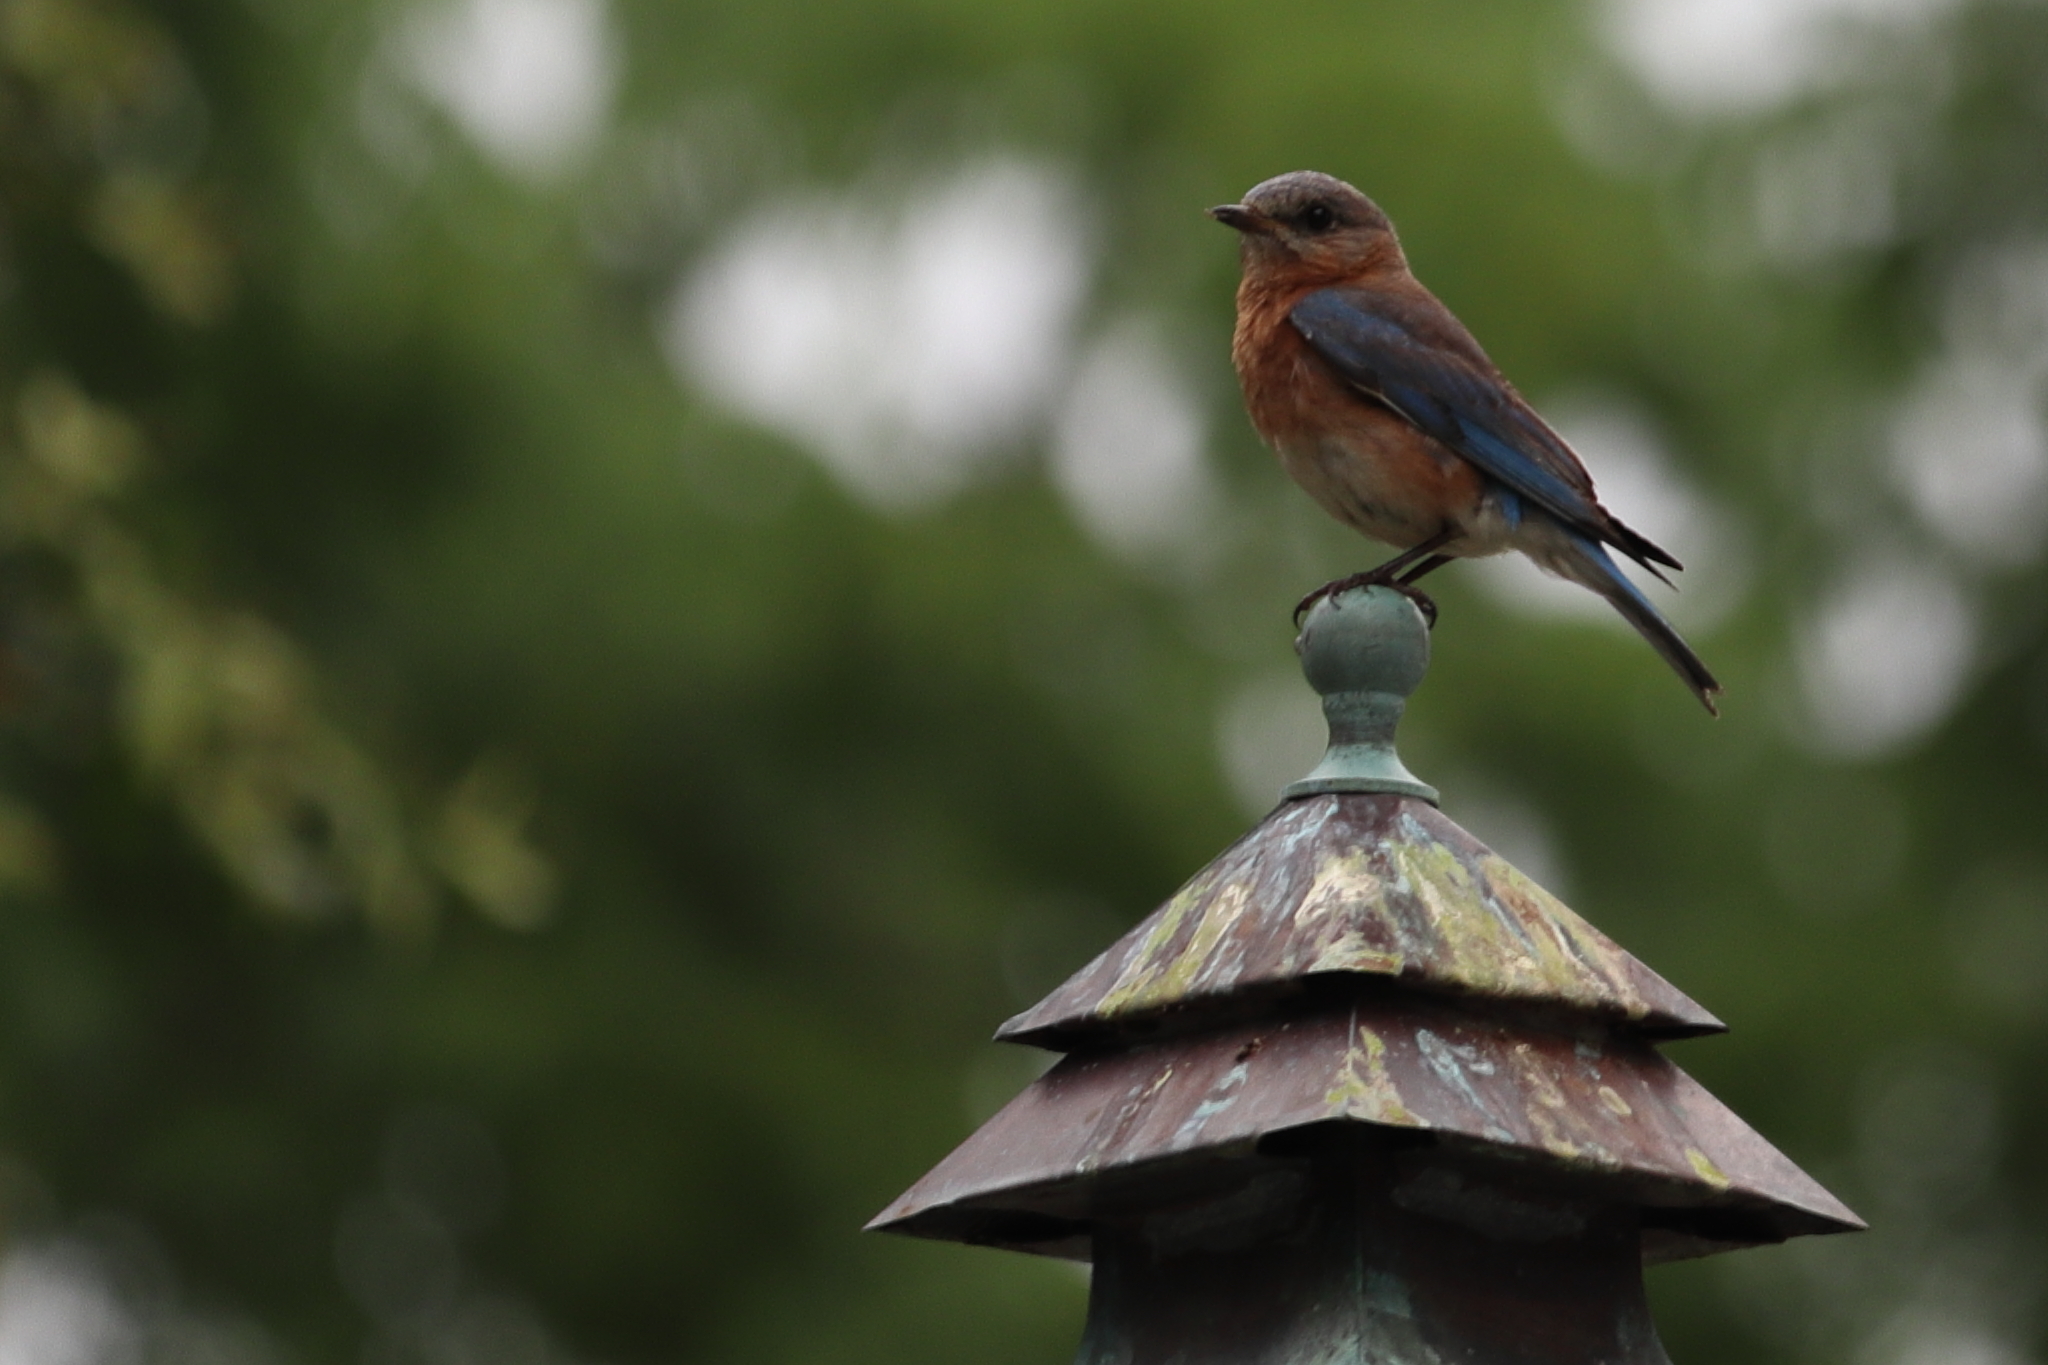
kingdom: Animalia
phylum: Chordata
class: Aves
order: Passeriformes
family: Turdidae
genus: Sialia
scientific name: Sialia sialis
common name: Eastern bluebird
